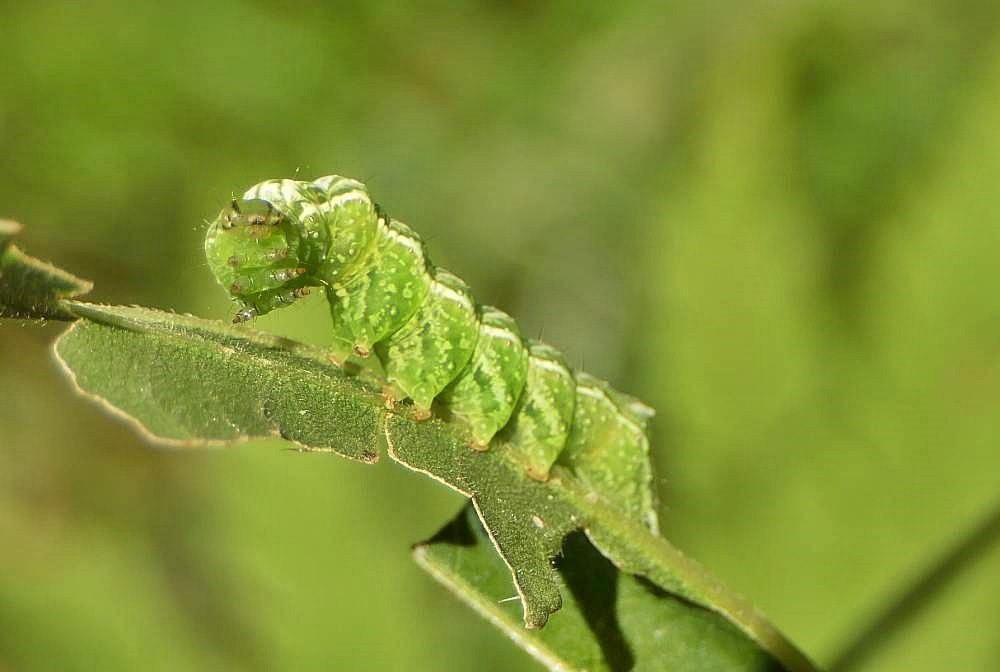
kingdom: Animalia
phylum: Arthropoda
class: Insecta
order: Lepidoptera
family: Noctuidae
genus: Abrostola
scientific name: Abrostola urentis
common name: Spectacled nettle moth
